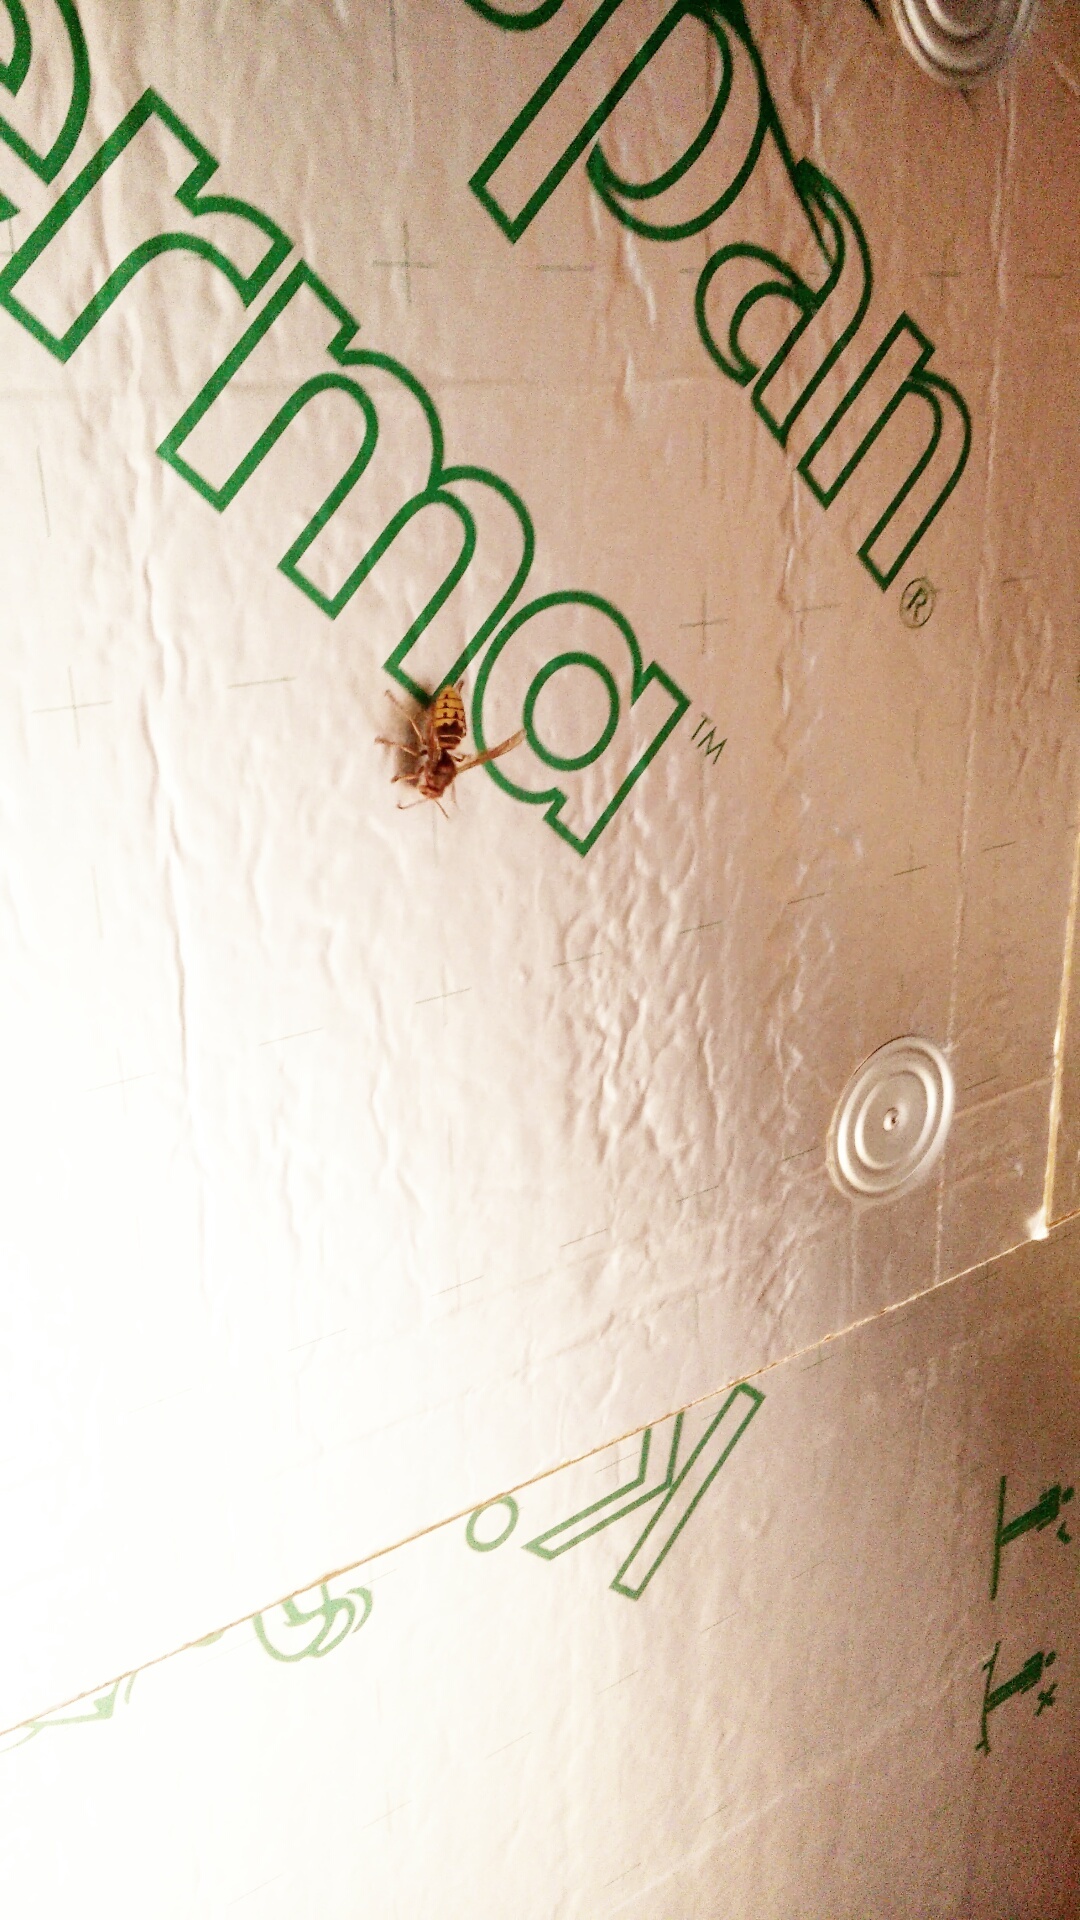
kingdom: Animalia
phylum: Arthropoda
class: Insecta
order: Hymenoptera
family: Vespidae
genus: Vespa
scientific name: Vespa crabro
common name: Hornet
